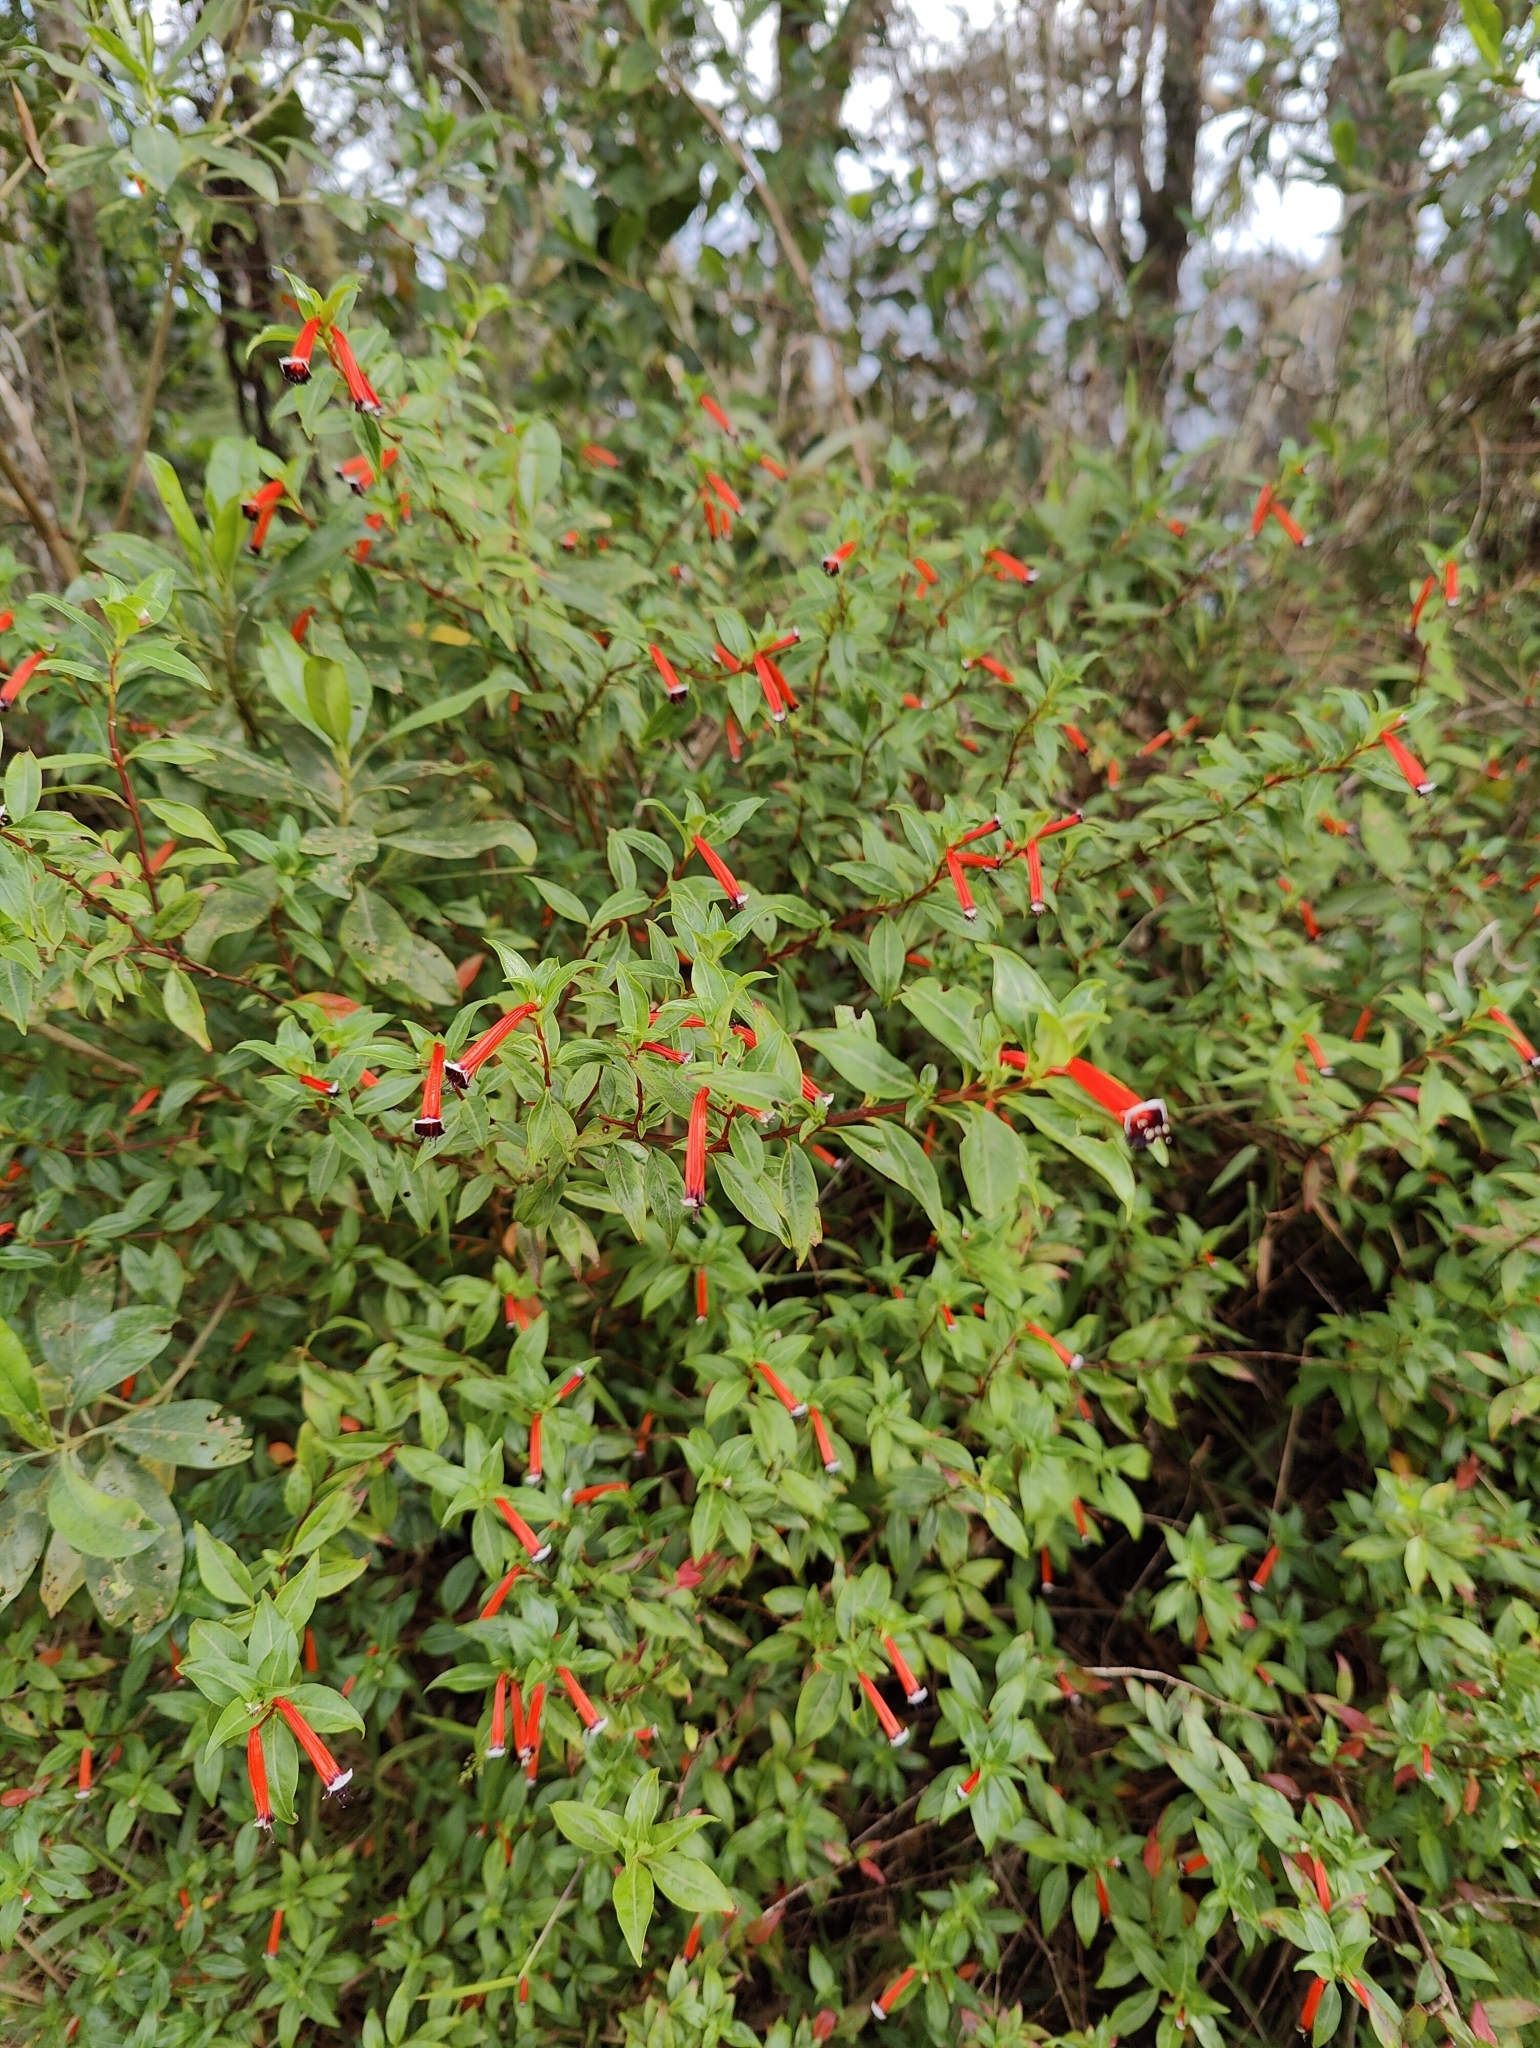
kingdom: Plantae
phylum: Tracheophyta
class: Magnoliopsida
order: Myrtales
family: Lythraceae
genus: Cuphea
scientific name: Cuphea ignea
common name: Cigar flower
